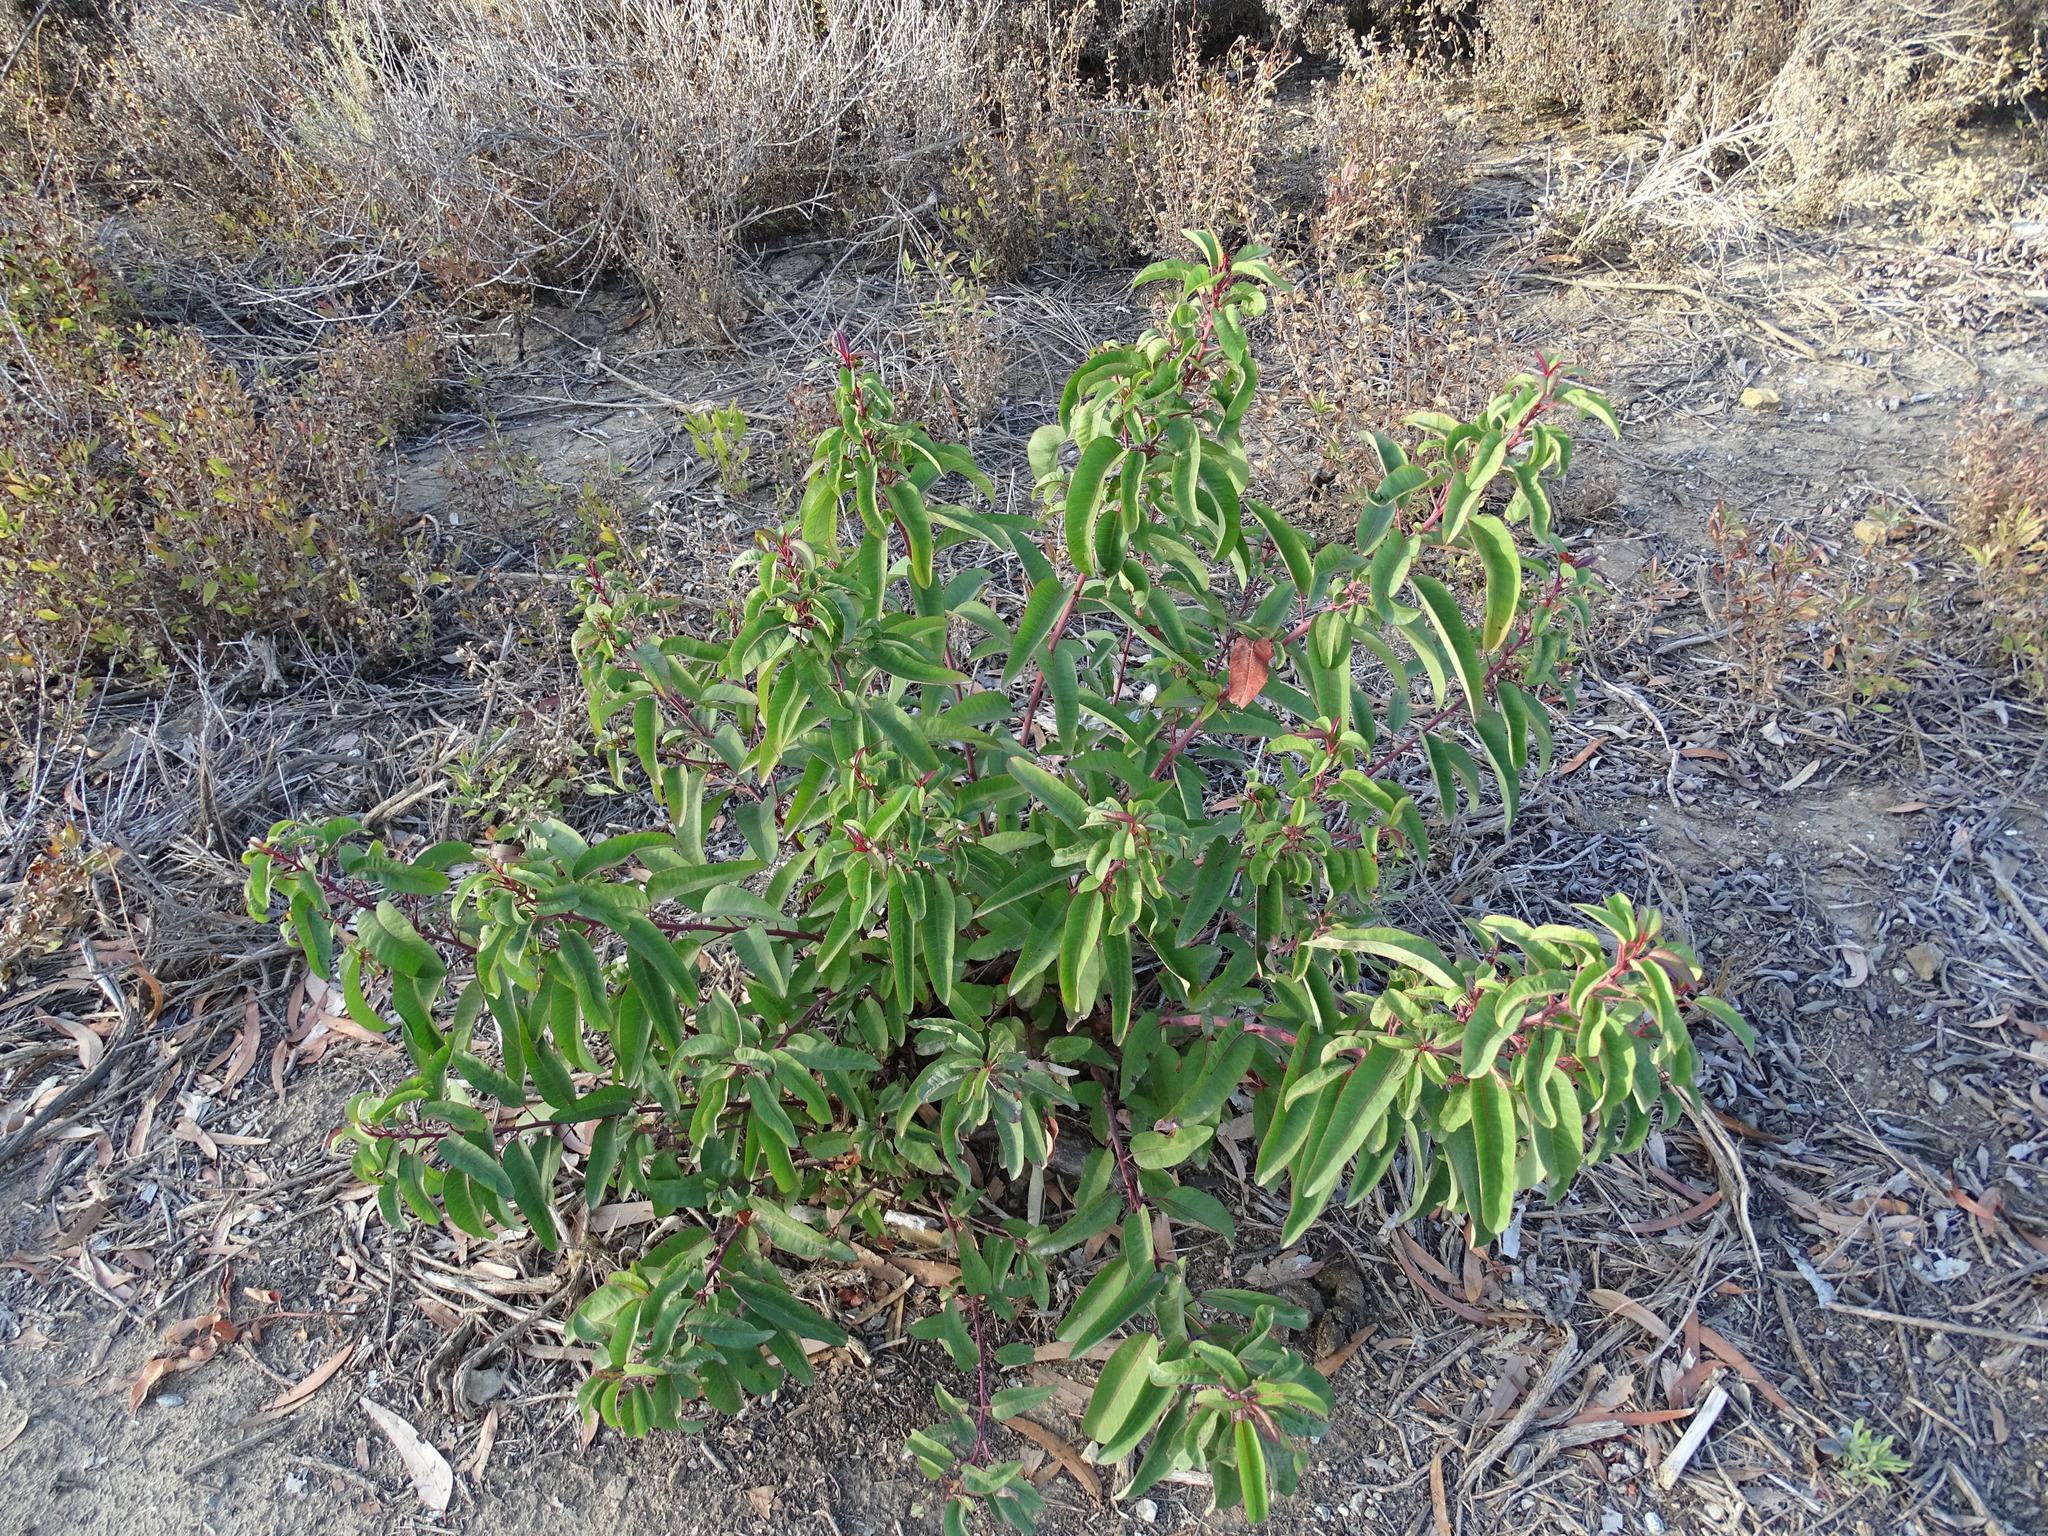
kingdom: Plantae
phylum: Tracheophyta
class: Magnoliopsida
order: Sapindales
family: Anacardiaceae
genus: Malosma
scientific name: Malosma laurina
